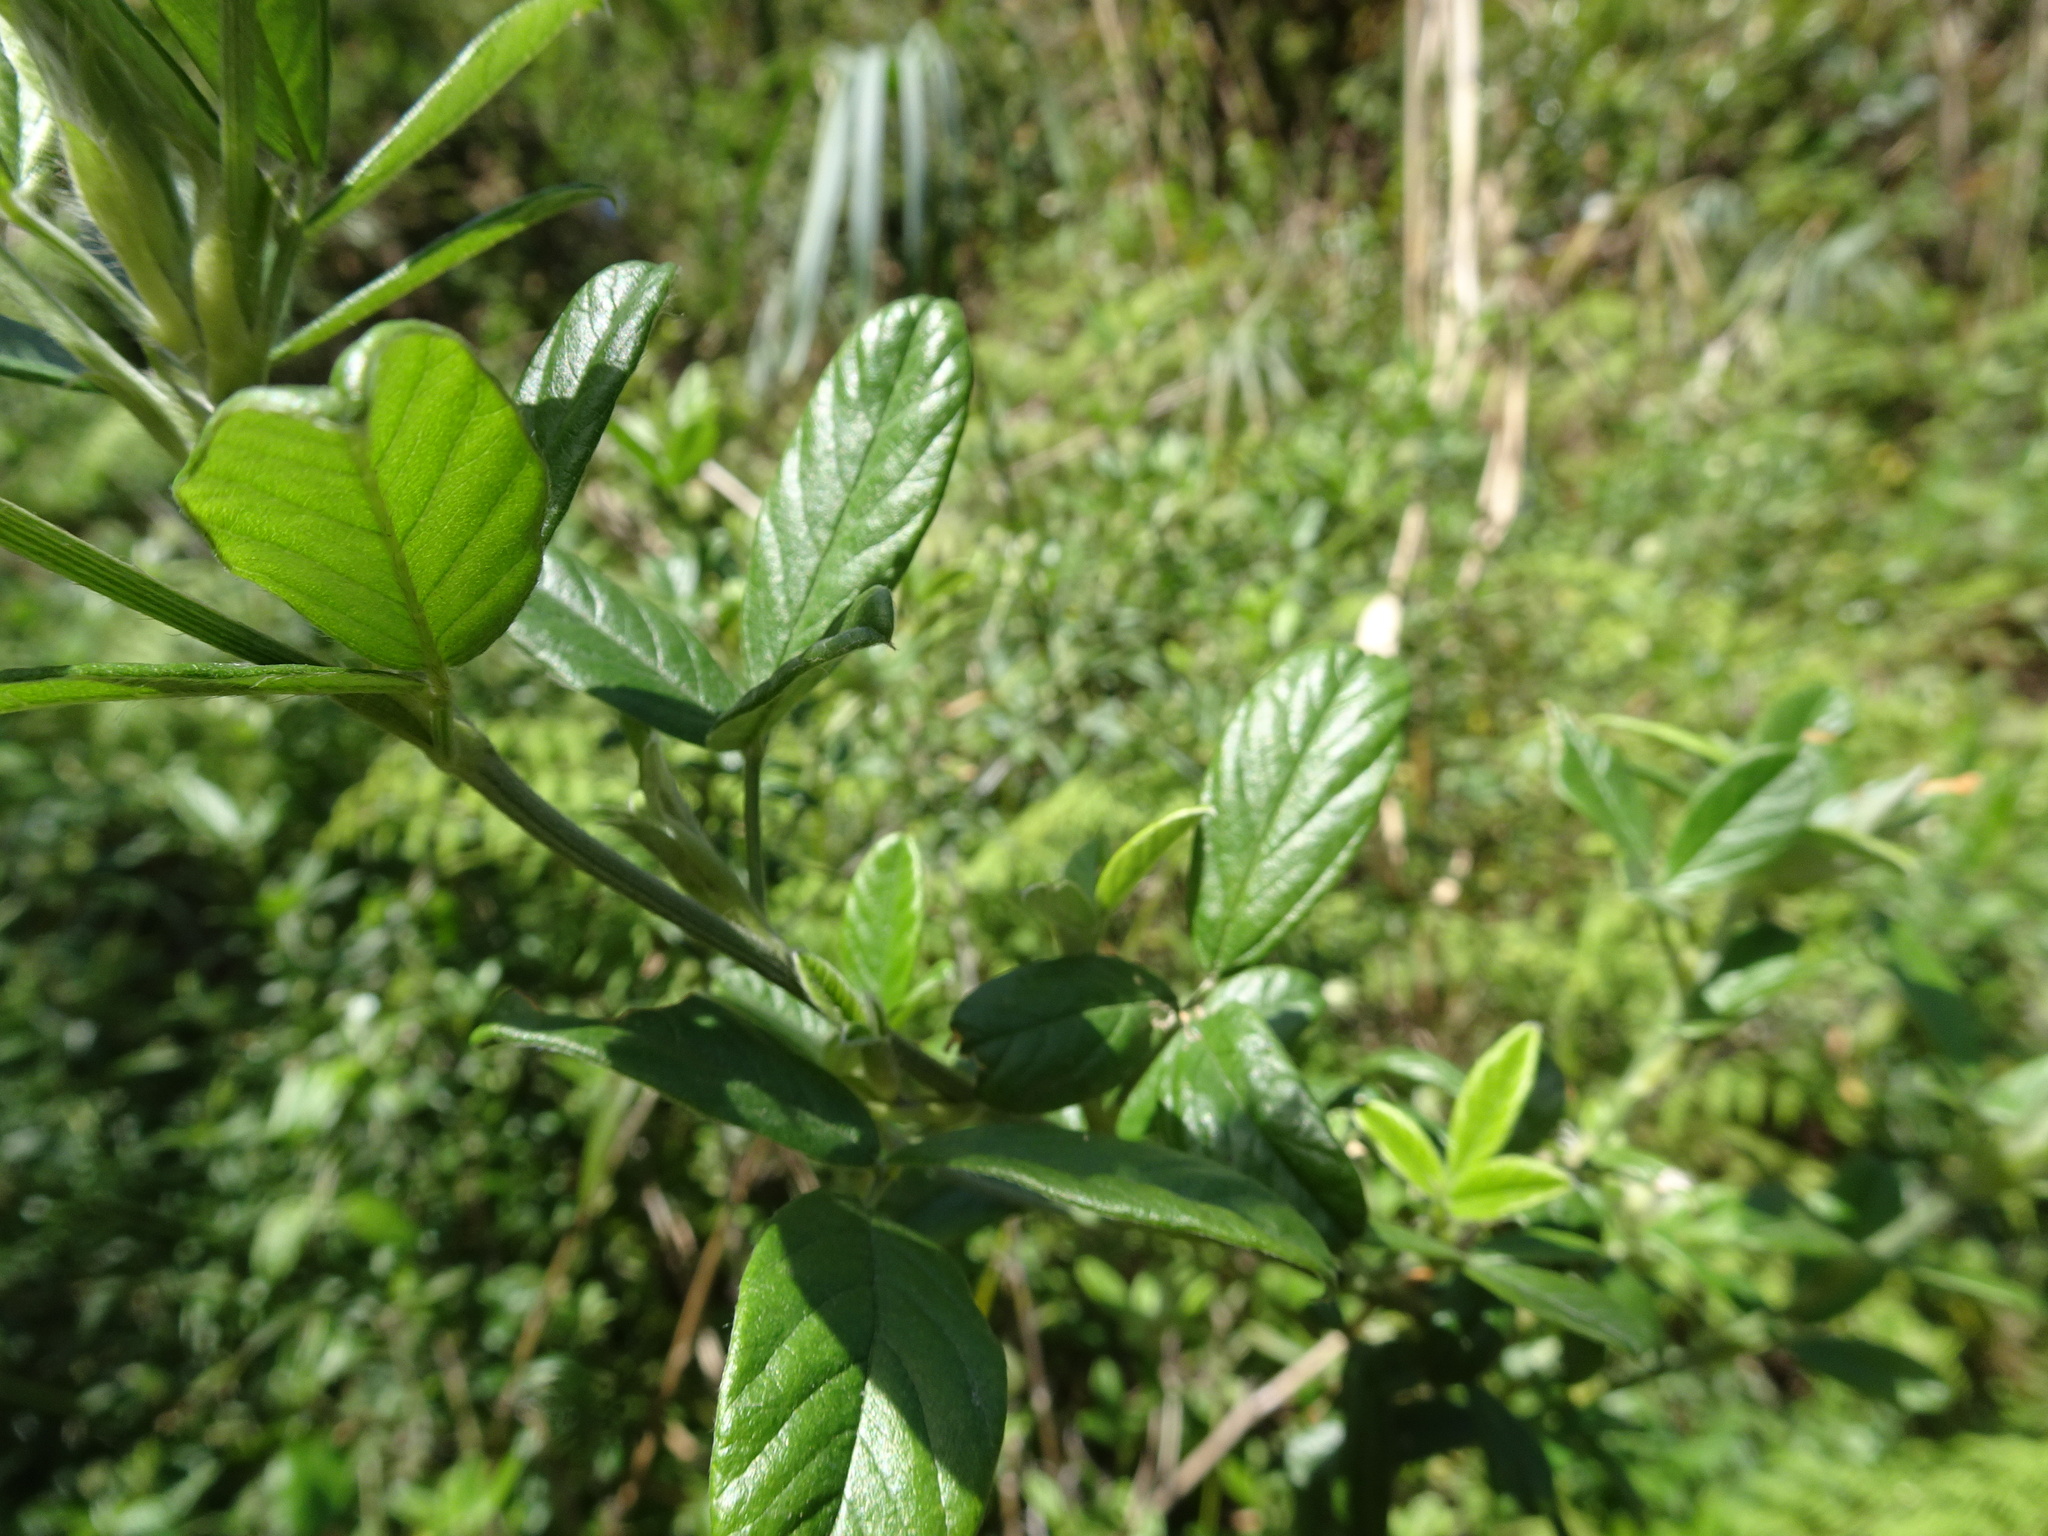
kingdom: Plantae
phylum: Tracheophyta
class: Magnoliopsida
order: Fabales
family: Fabaceae
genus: Psoralea
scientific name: Psoralea sericea
